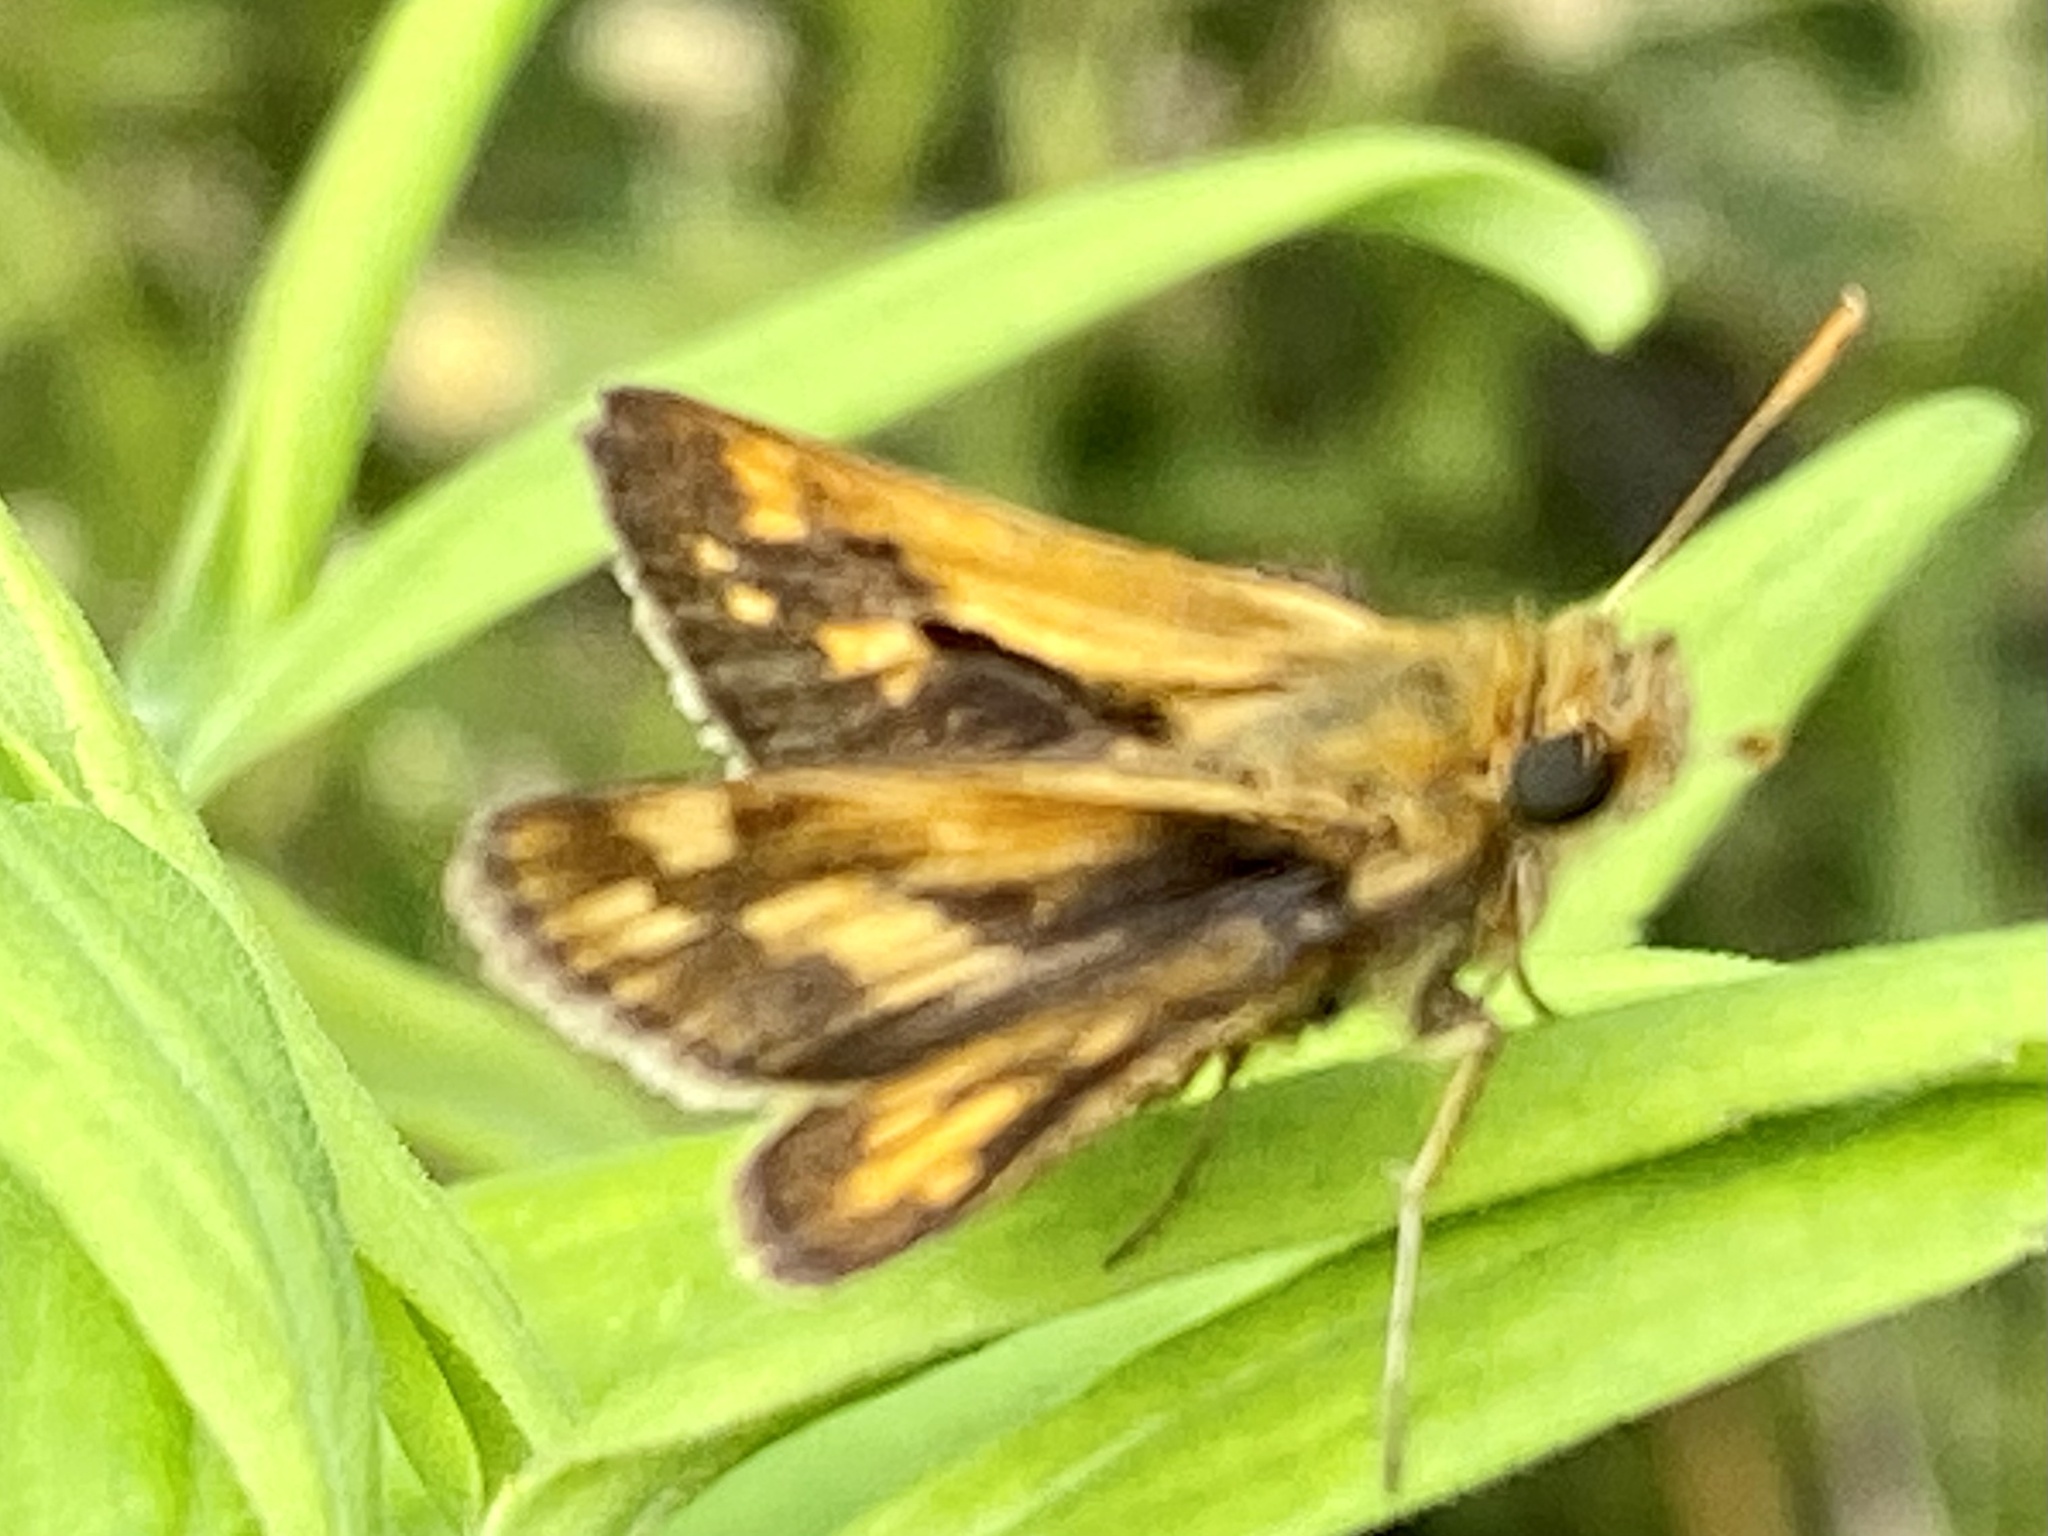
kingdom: Animalia
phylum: Arthropoda
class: Insecta
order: Lepidoptera
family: Hesperiidae
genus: Polites
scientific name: Polites coras
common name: Peck's skipper
